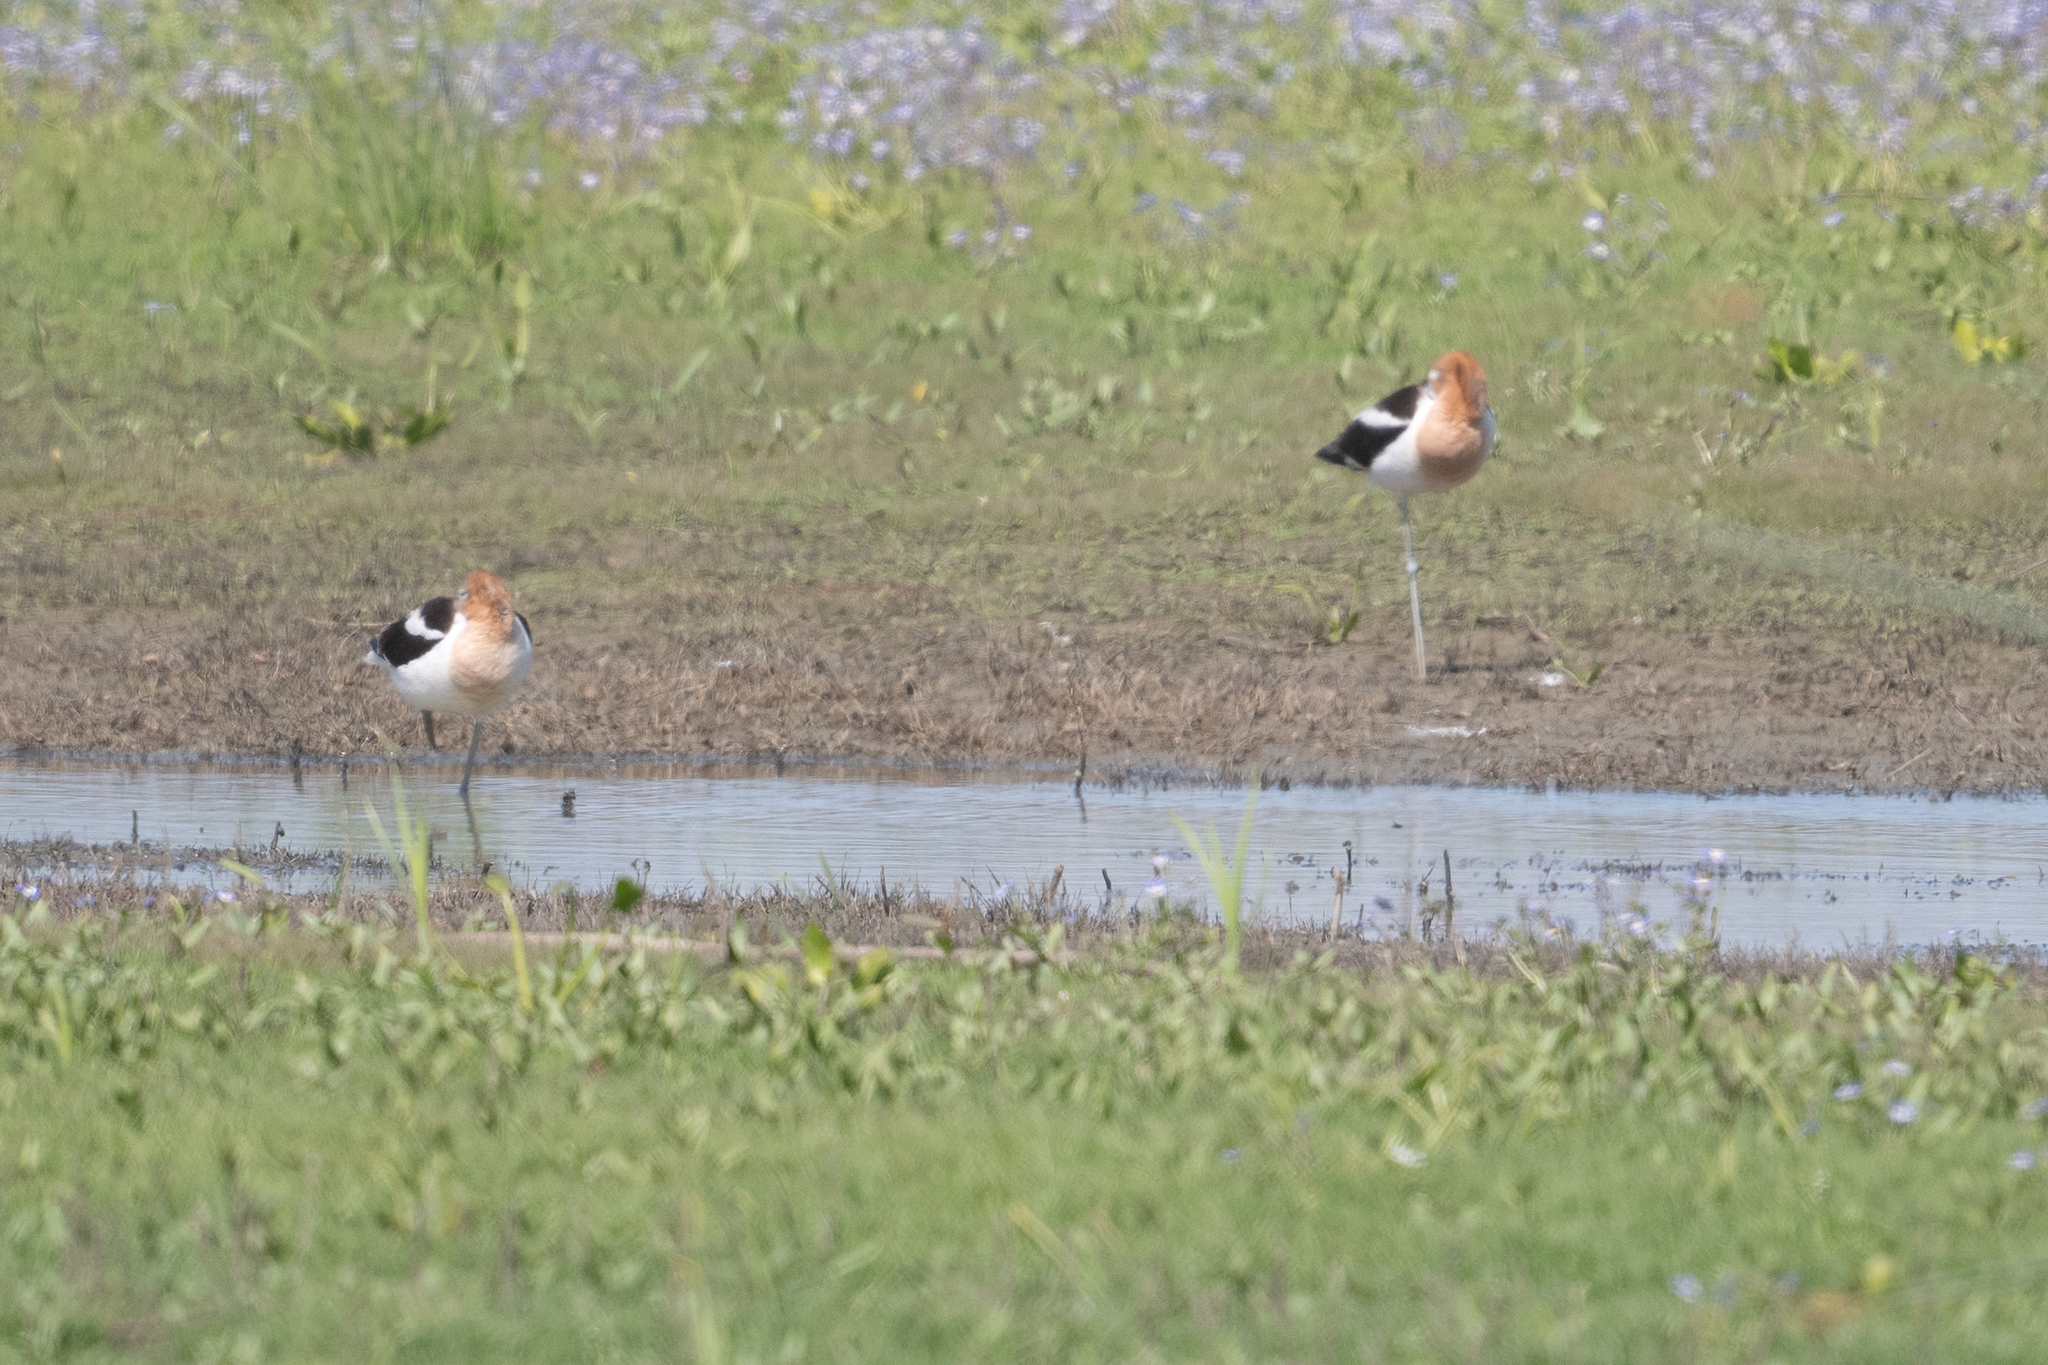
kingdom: Animalia
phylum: Chordata
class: Aves
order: Charadriiformes
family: Recurvirostridae
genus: Recurvirostra
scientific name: Recurvirostra americana
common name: American avocet
